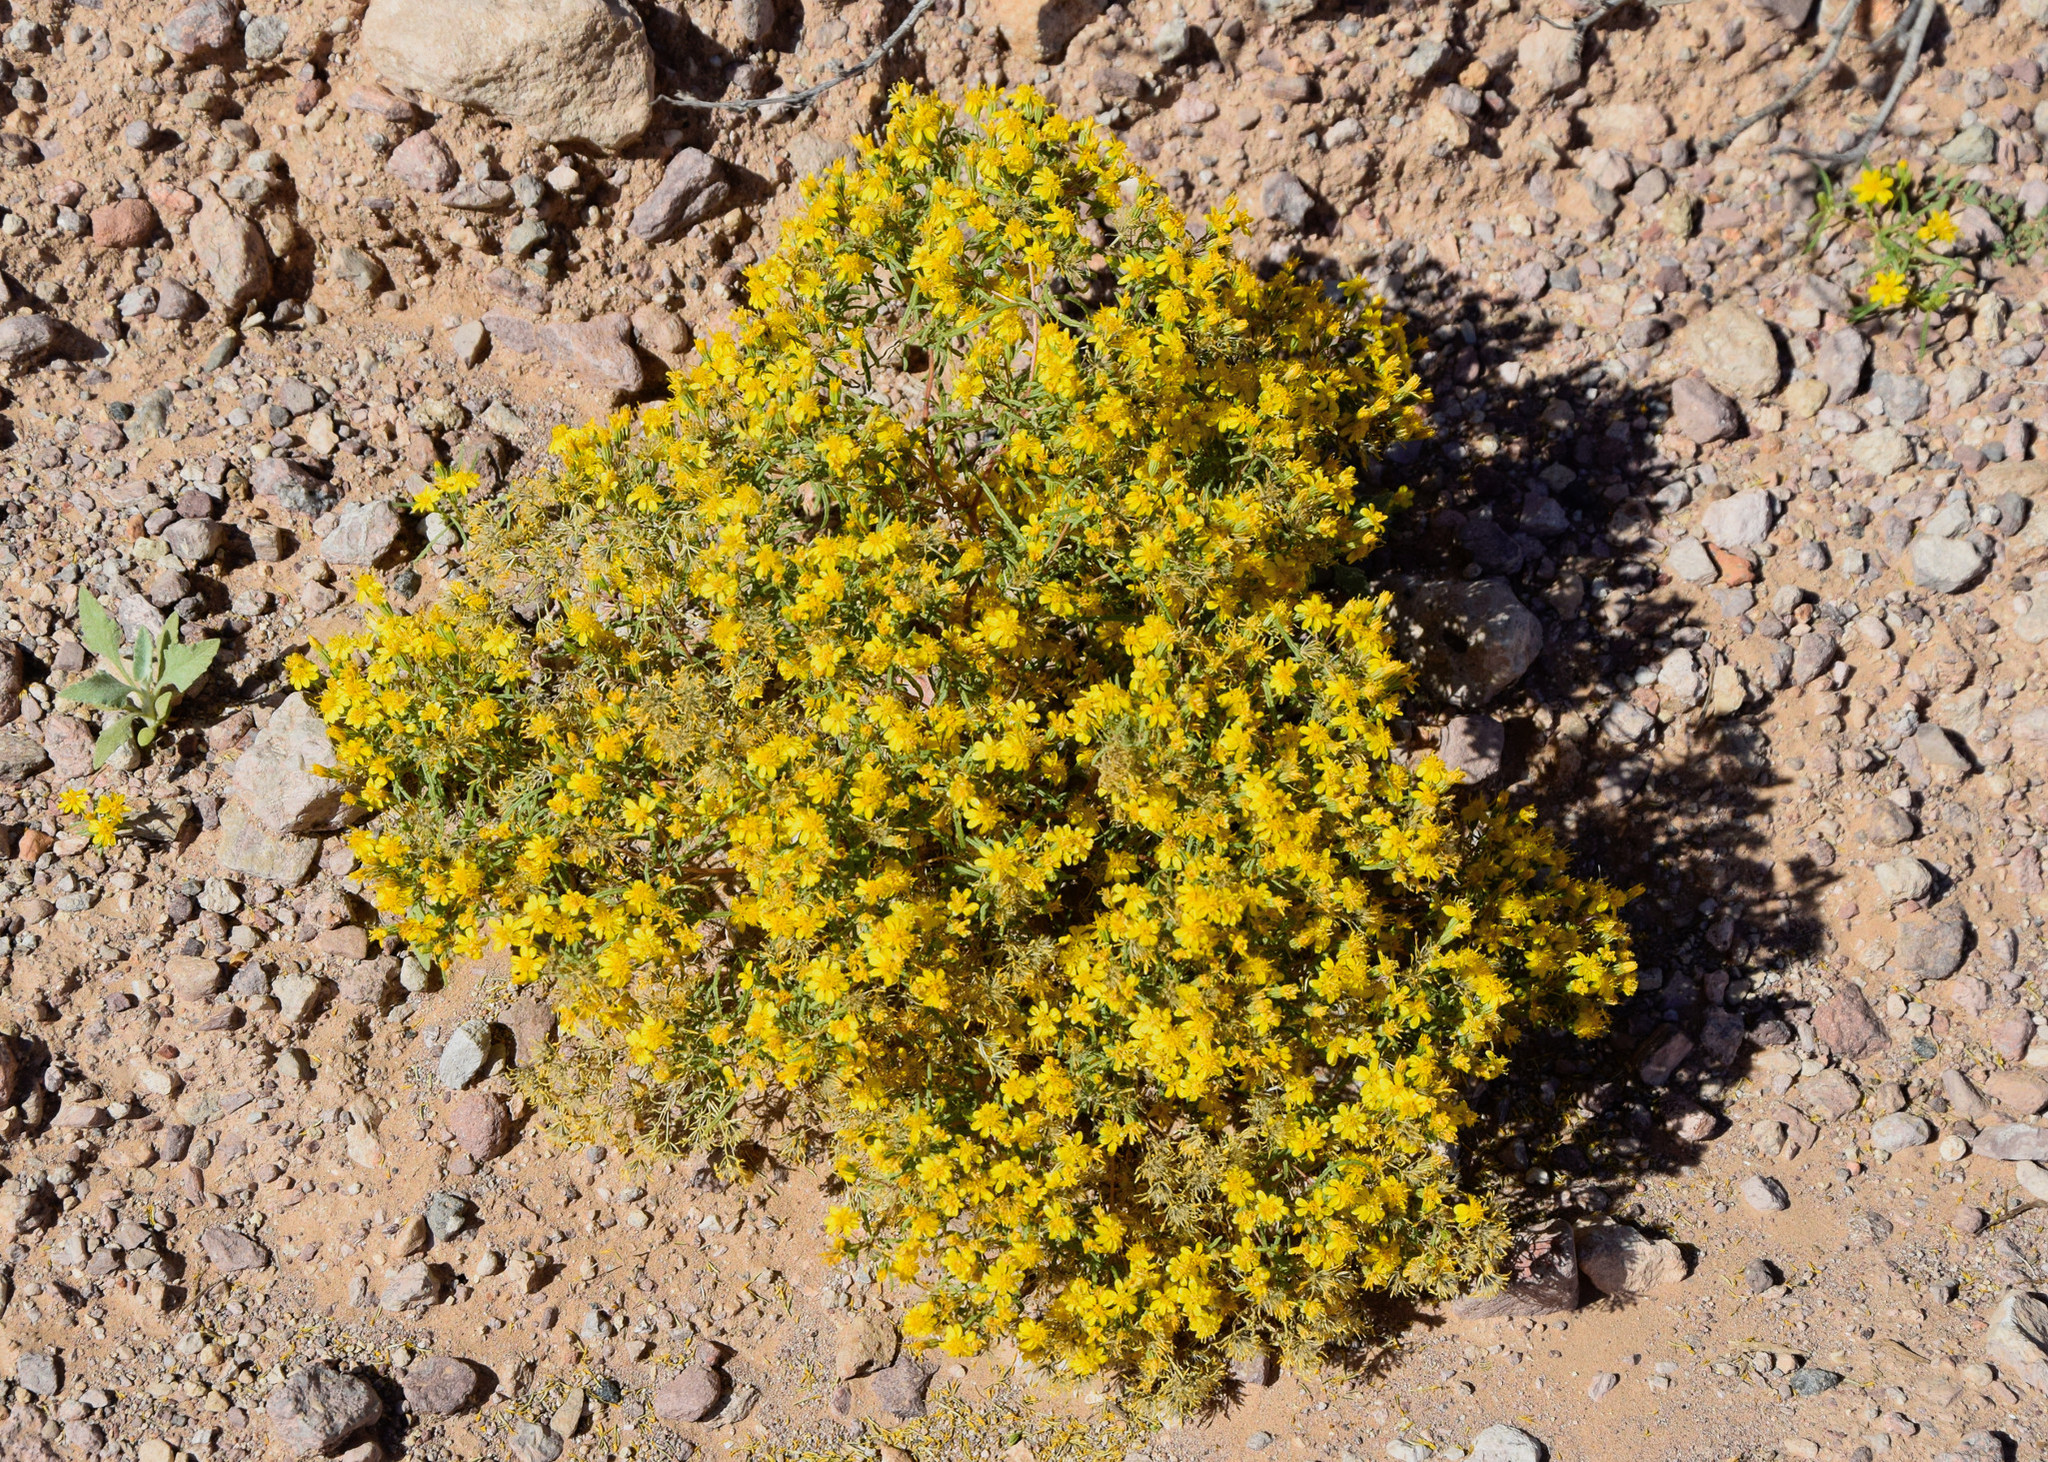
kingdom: Plantae
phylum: Tracheophyta
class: Magnoliopsida
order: Asterales
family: Asteraceae
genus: Pectis
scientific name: Pectis papposa
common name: Many-bristle chinchweed
